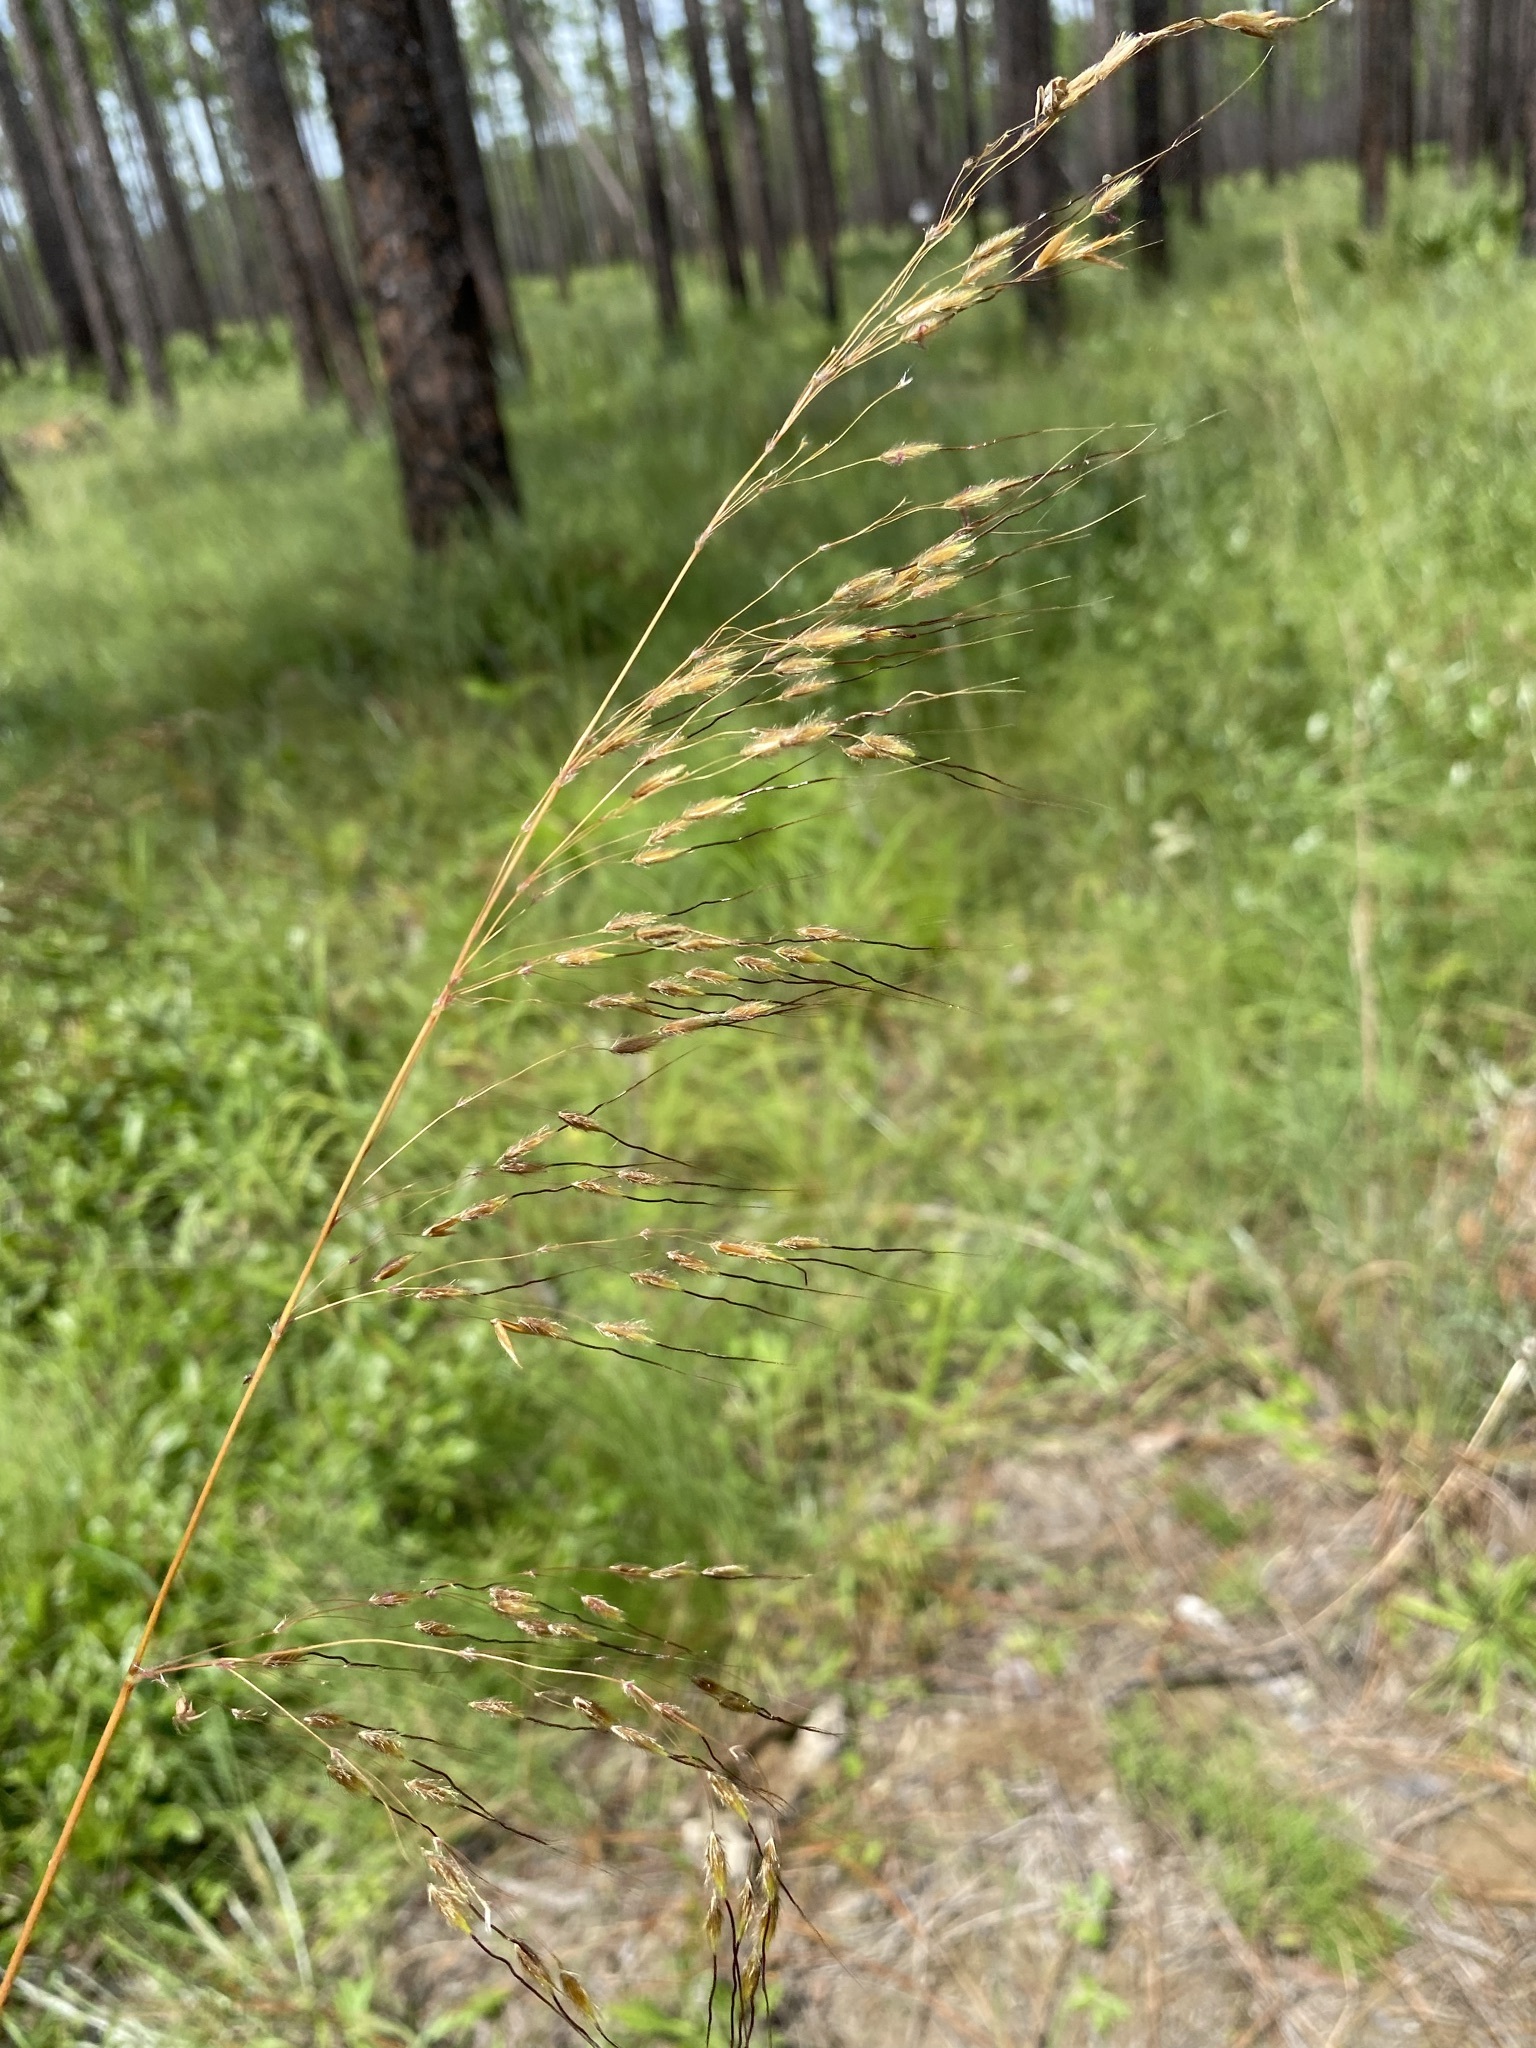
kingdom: Plantae
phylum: Tracheophyta
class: Liliopsida
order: Poales
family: Poaceae
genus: Sorghastrum
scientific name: Sorghastrum secundum
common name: Lopsided indian grass
